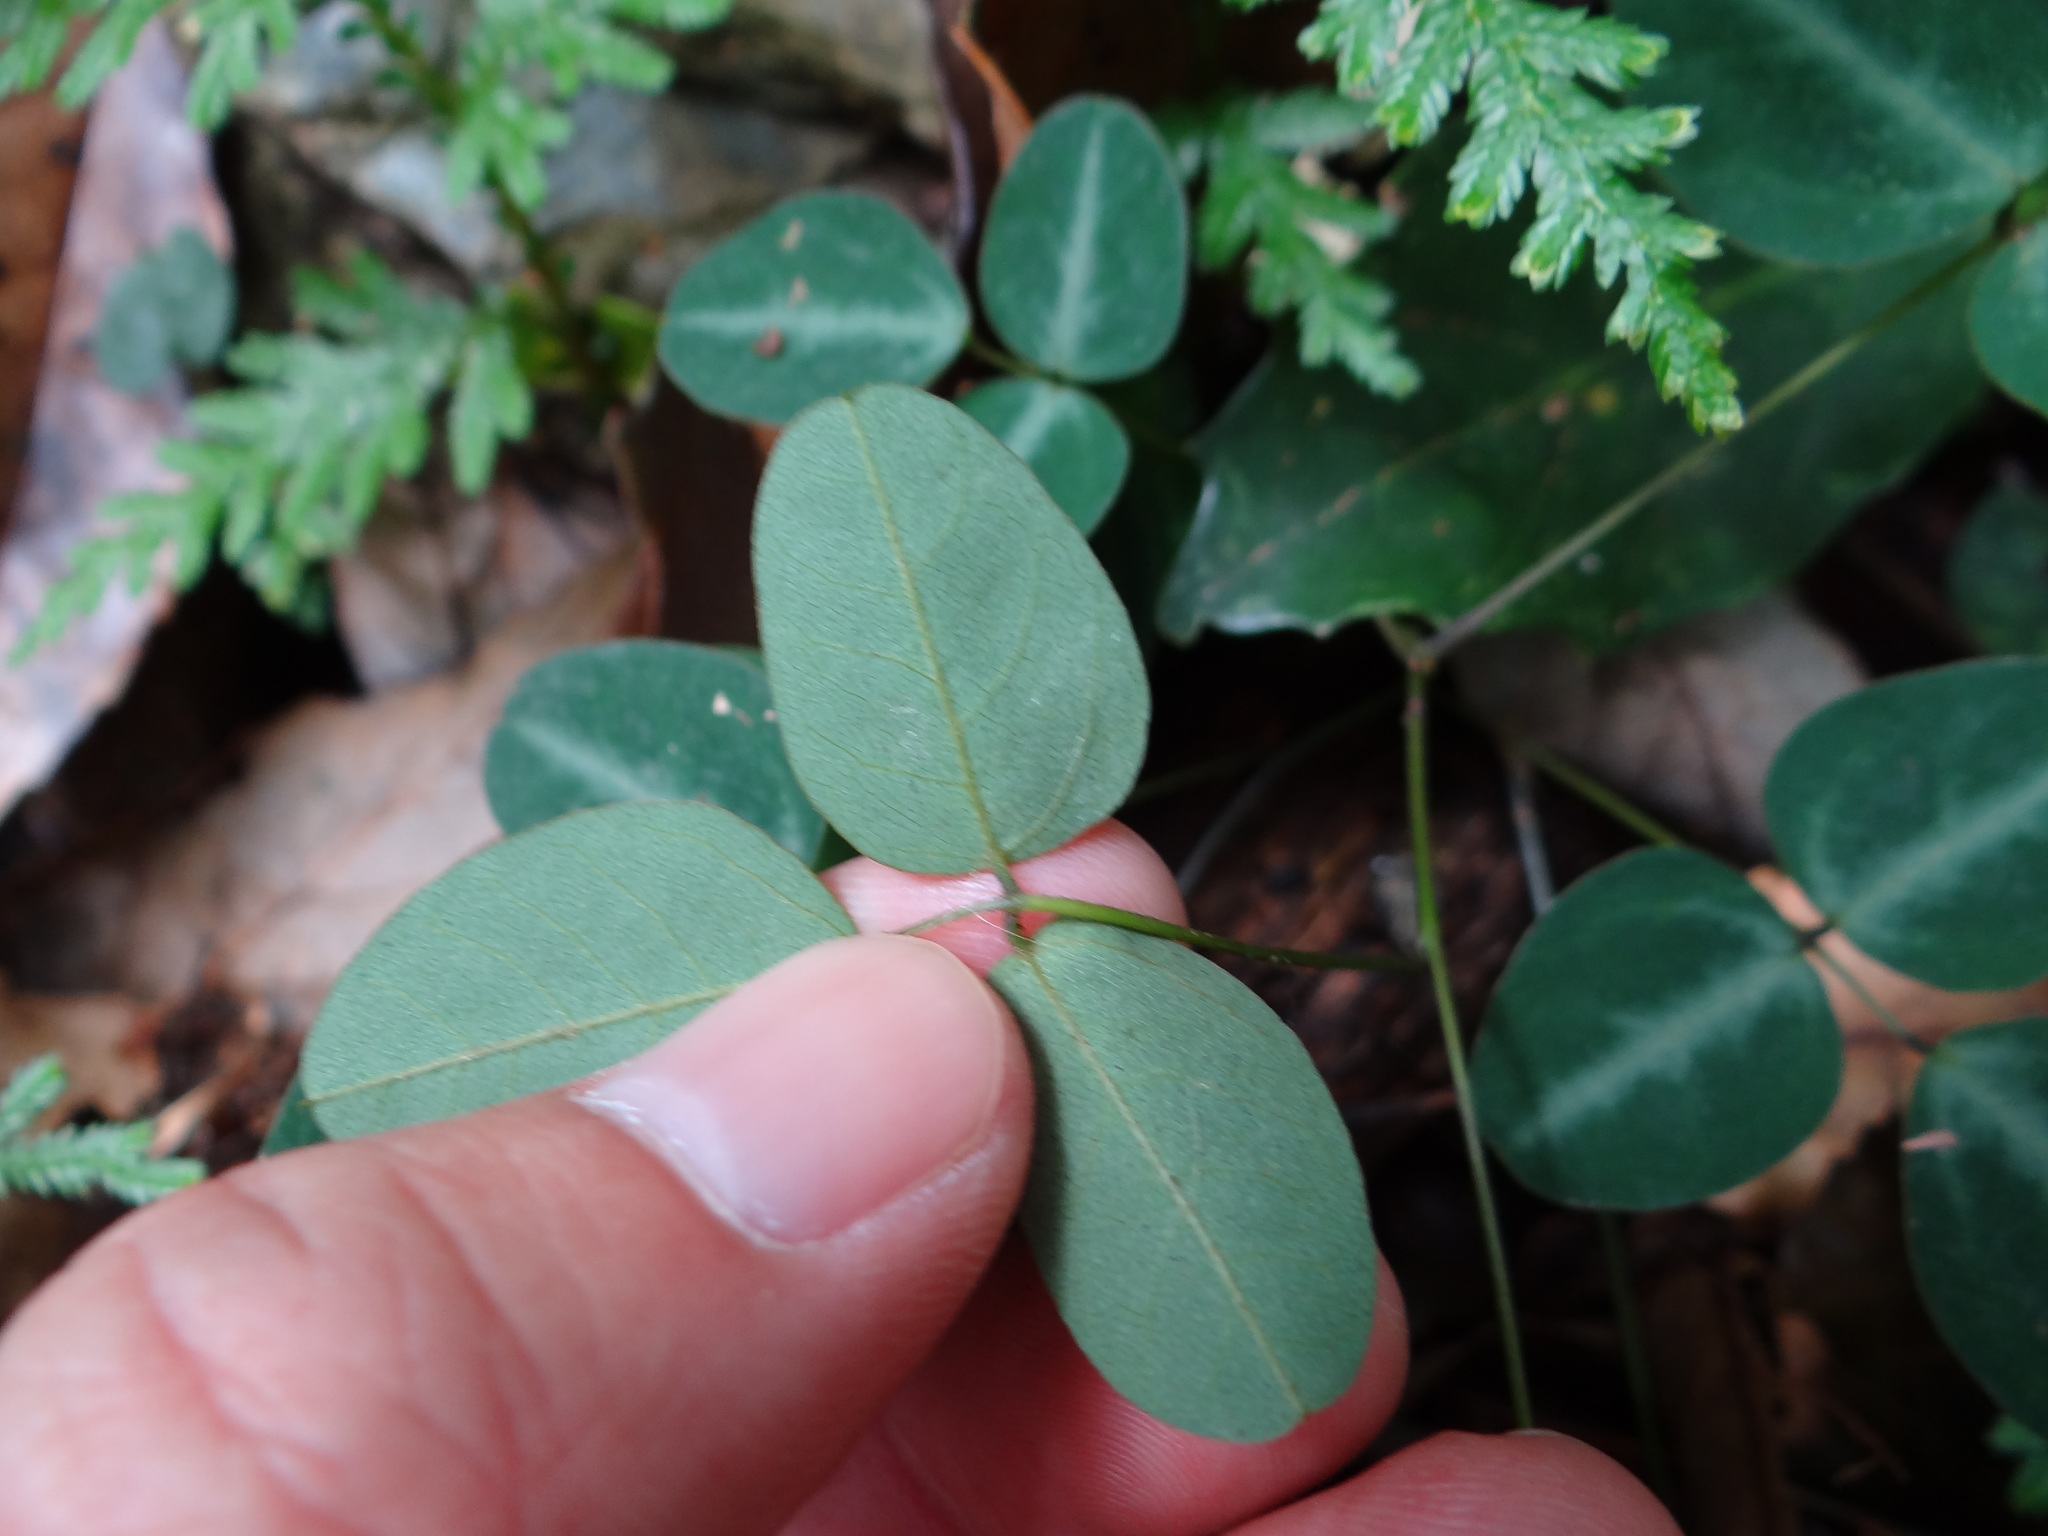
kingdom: Plantae
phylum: Tracheophyta
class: Magnoliopsida
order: Fabales
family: Fabaceae
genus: Dumasia
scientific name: Dumasia villosa
